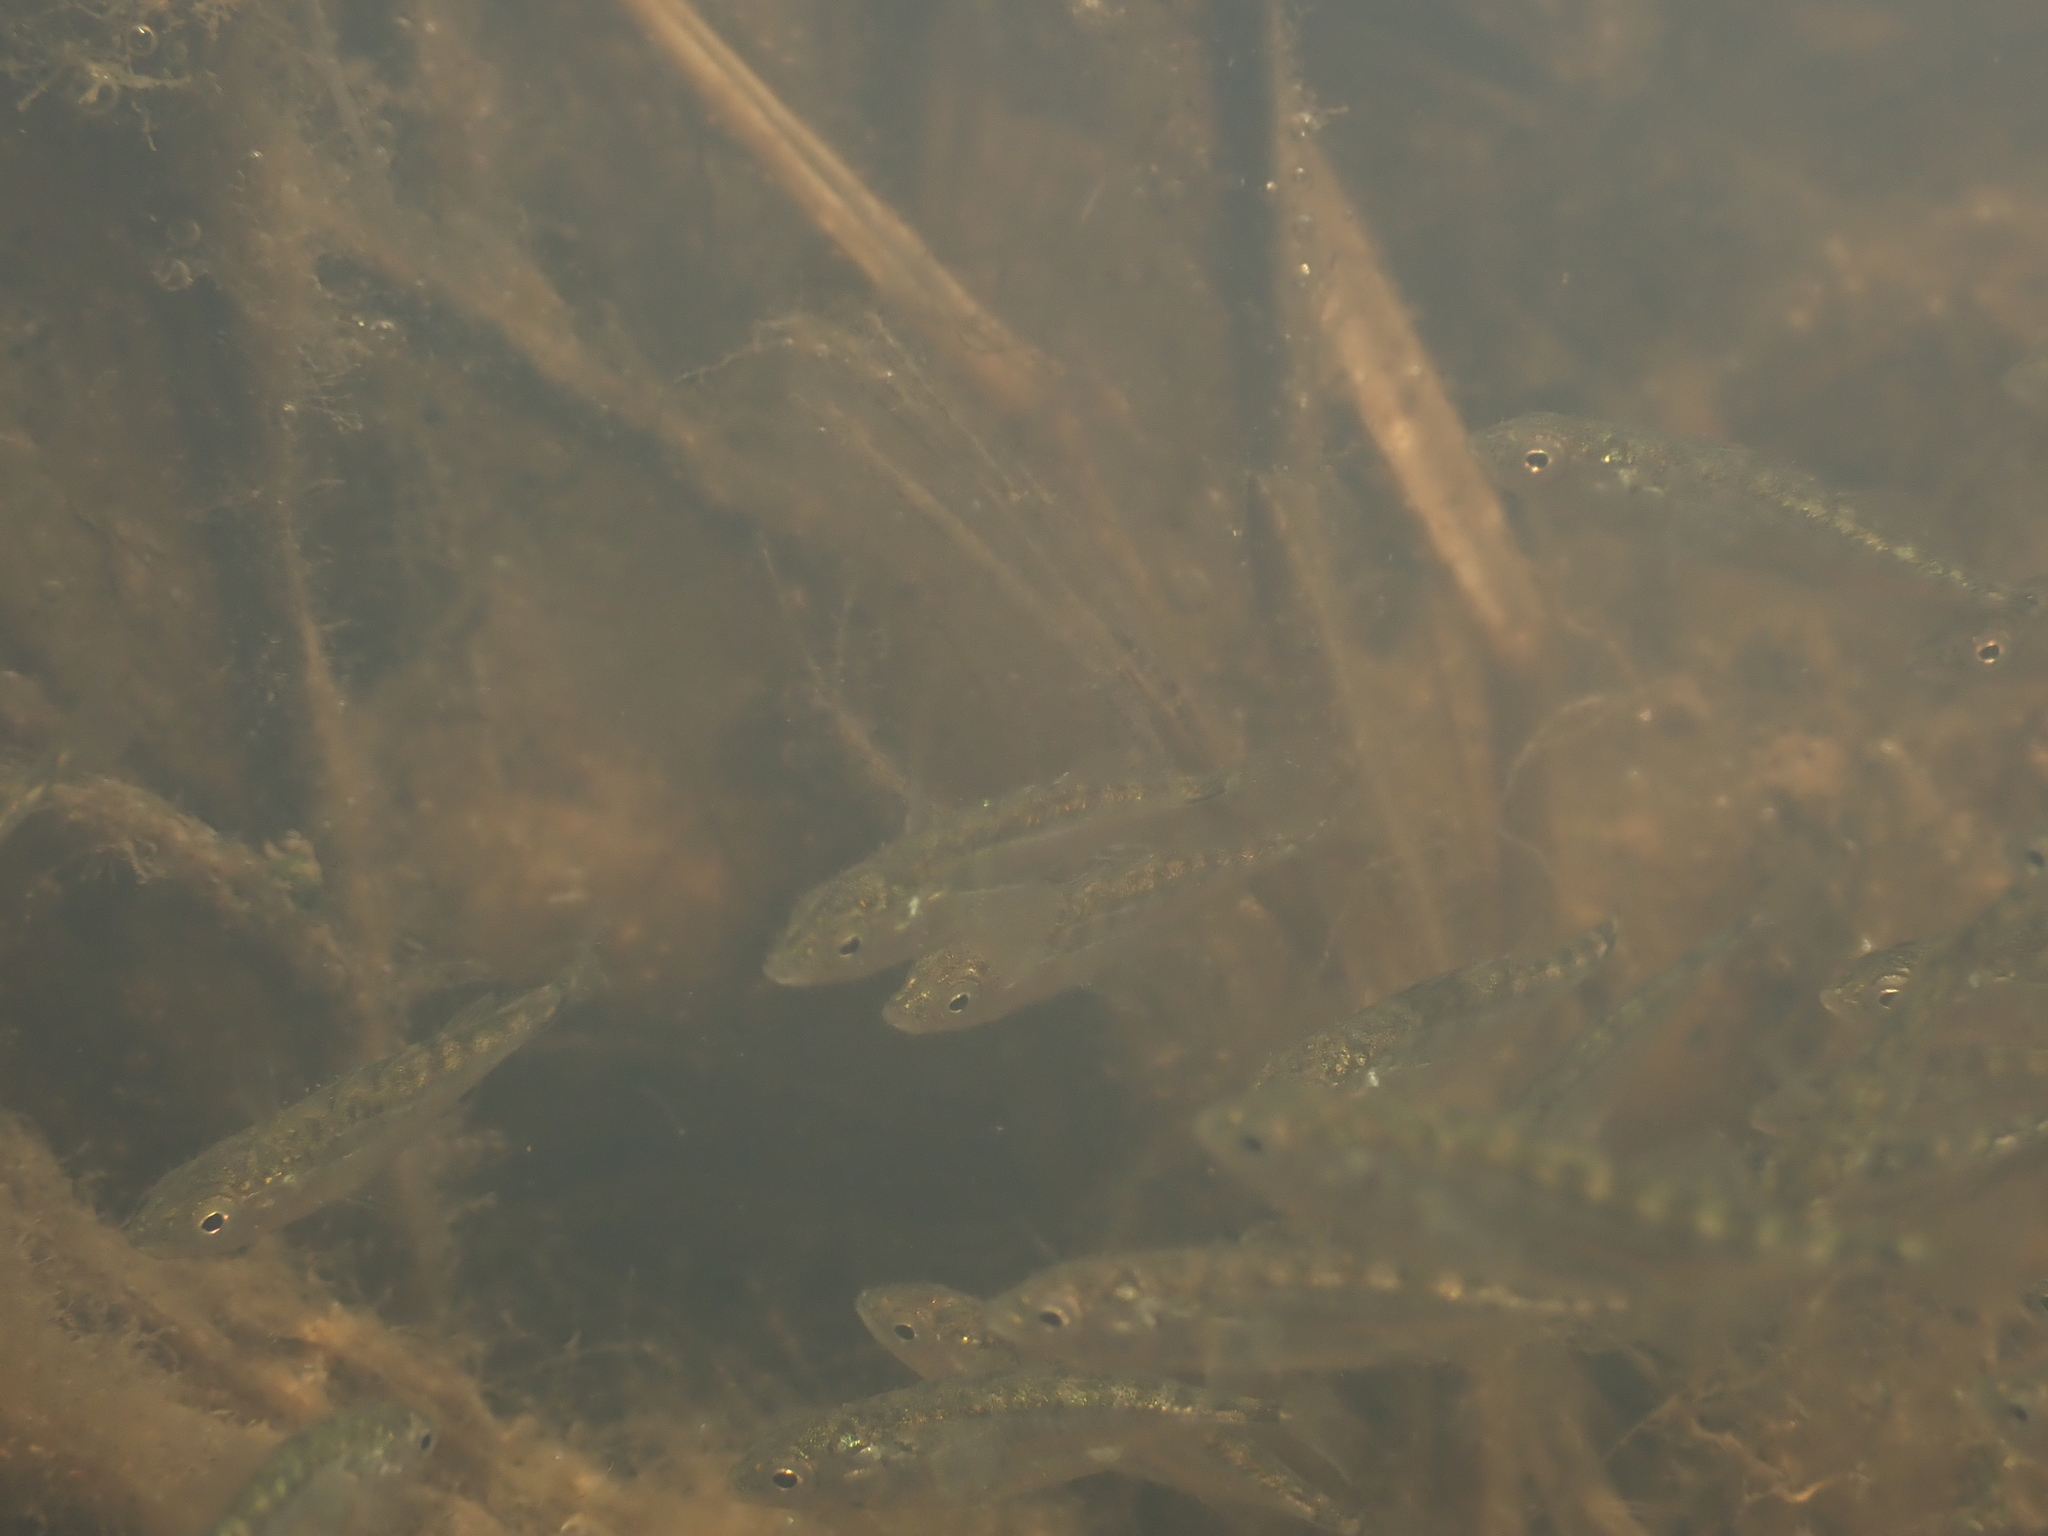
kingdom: Animalia
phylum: Chordata
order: Gasterosteiformes
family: Gasterosteidae
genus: Gasterosteus
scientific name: Gasterosteus aculeatus
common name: Three-spined stickleback
